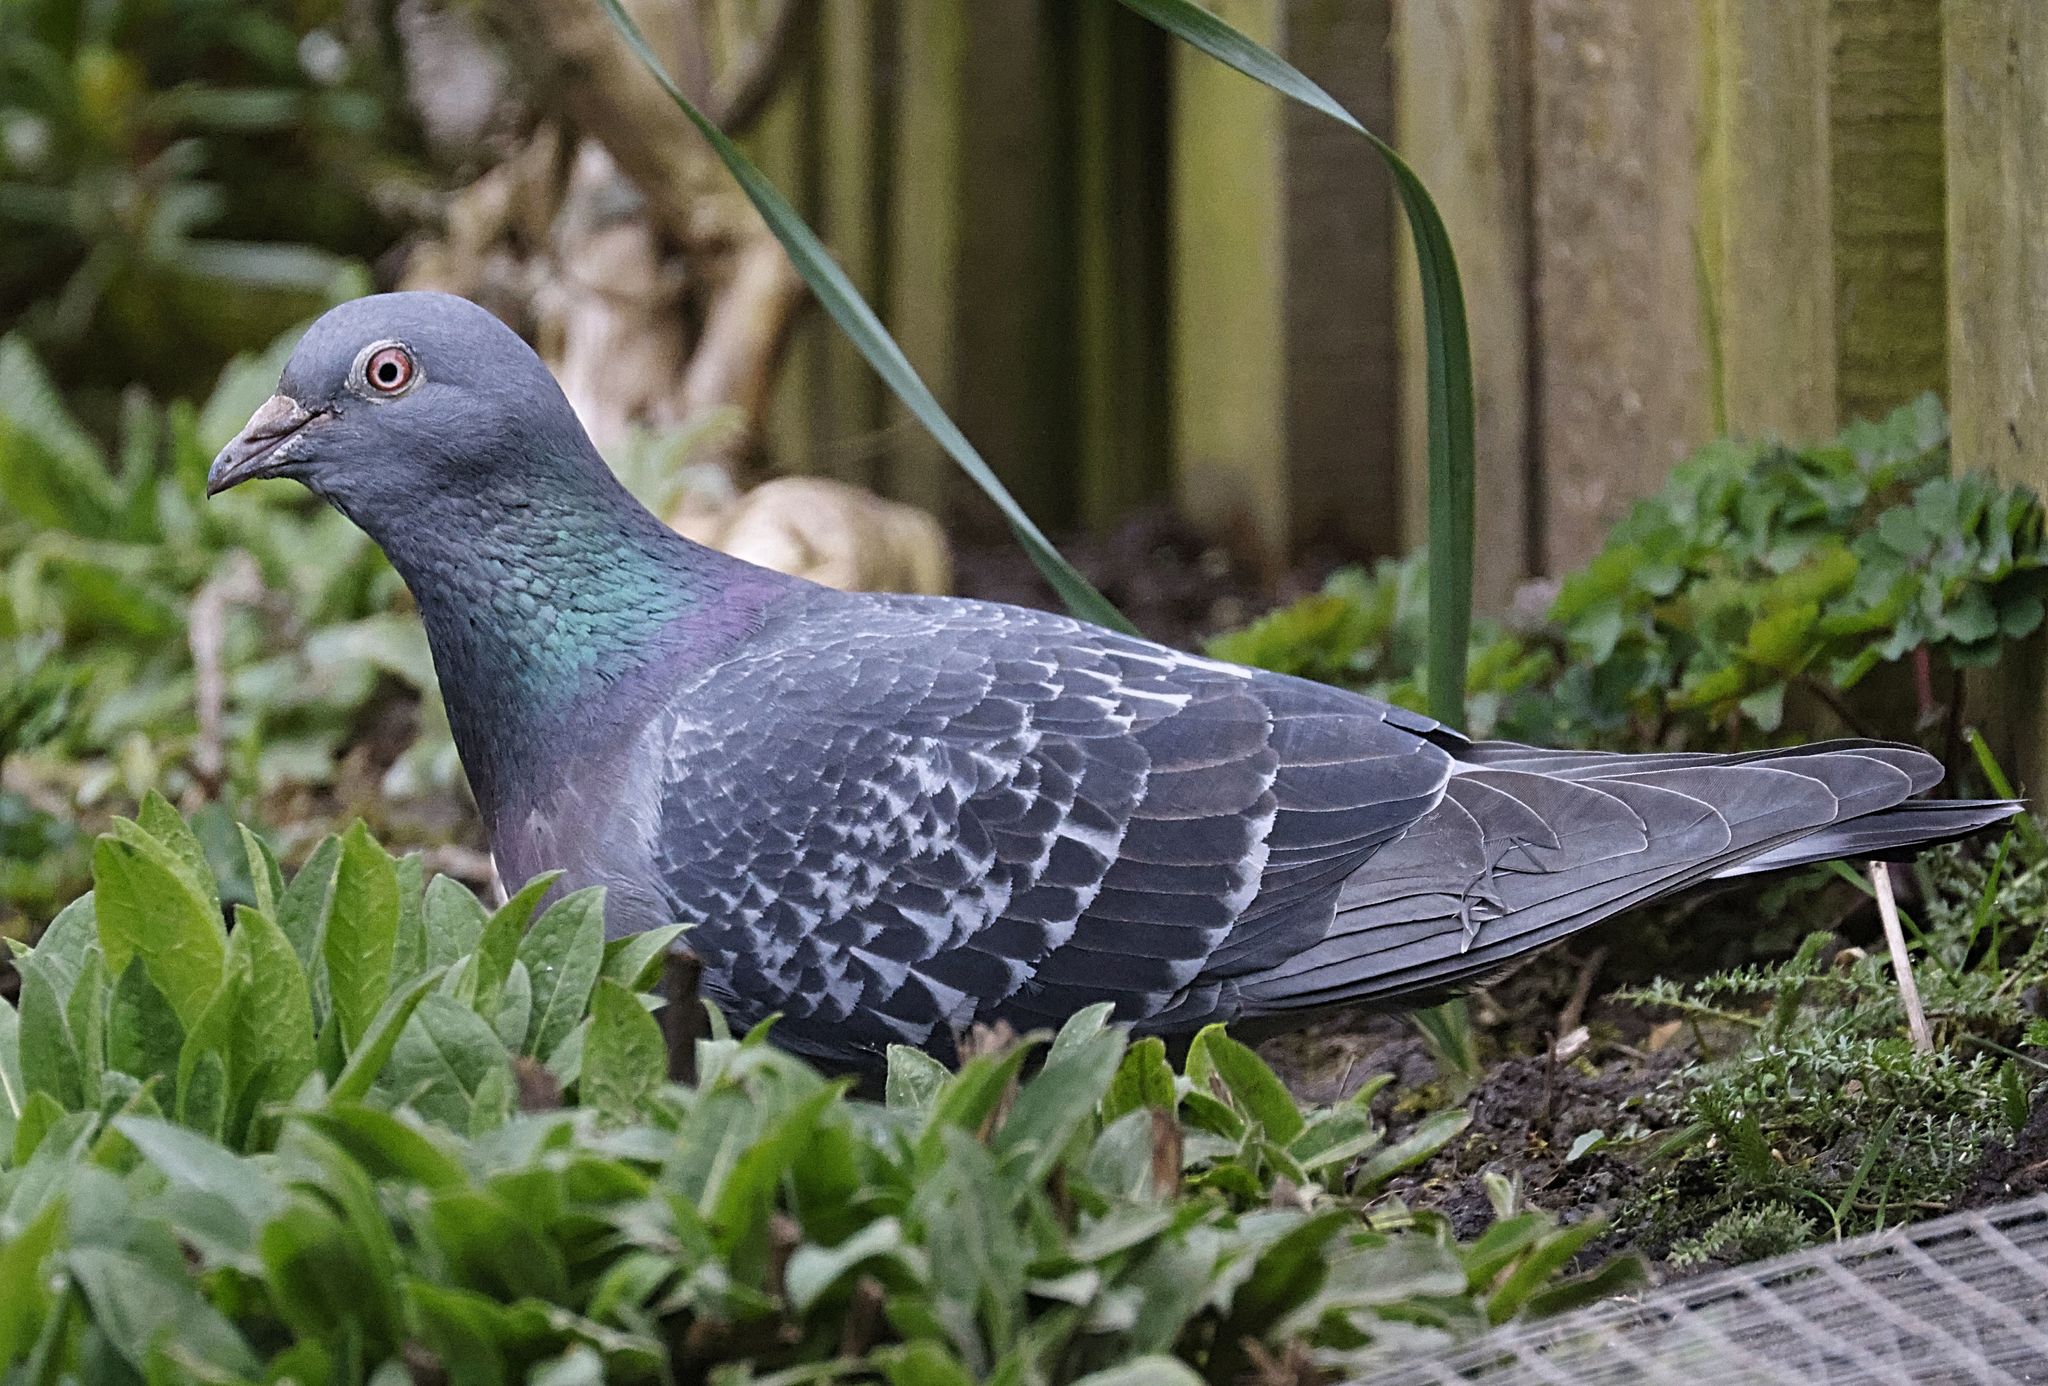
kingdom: Animalia
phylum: Chordata
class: Aves
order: Columbiformes
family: Columbidae
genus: Columba
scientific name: Columba livia
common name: Rock pigeon
